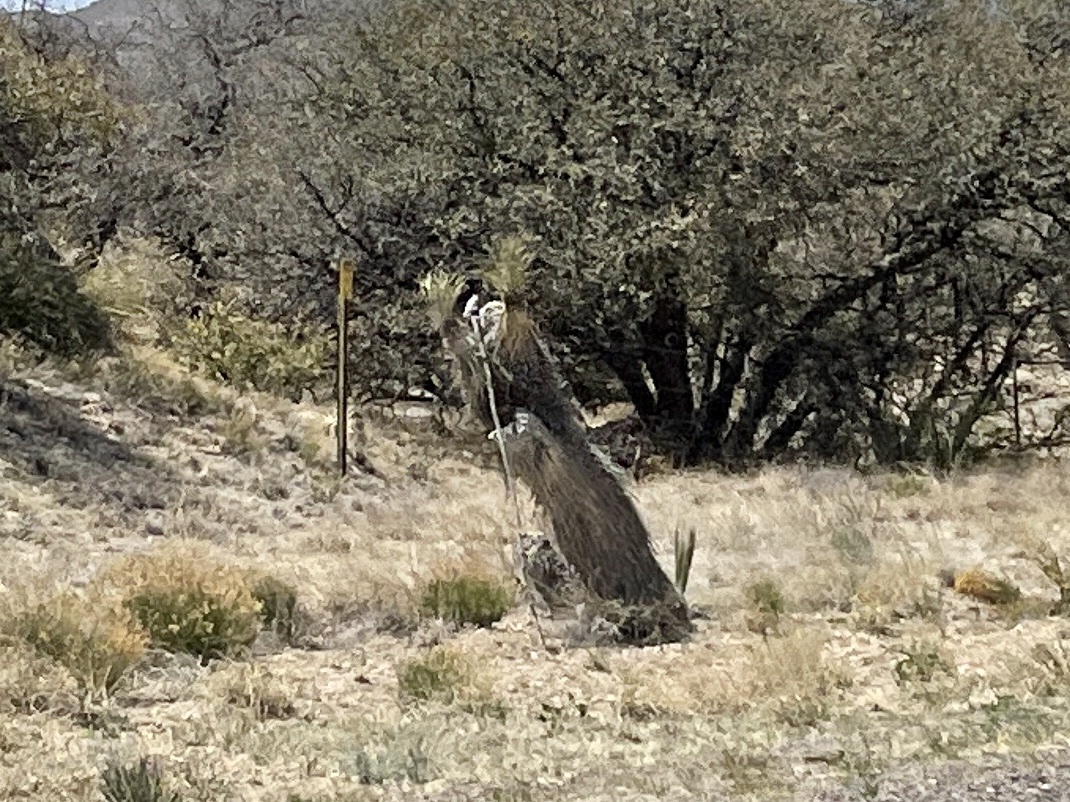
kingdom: Plantae
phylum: Tracheophyta
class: Liliopsida
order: Asparagales
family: Asparagaceae
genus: Yucca
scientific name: Yucca elata
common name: Palmella
